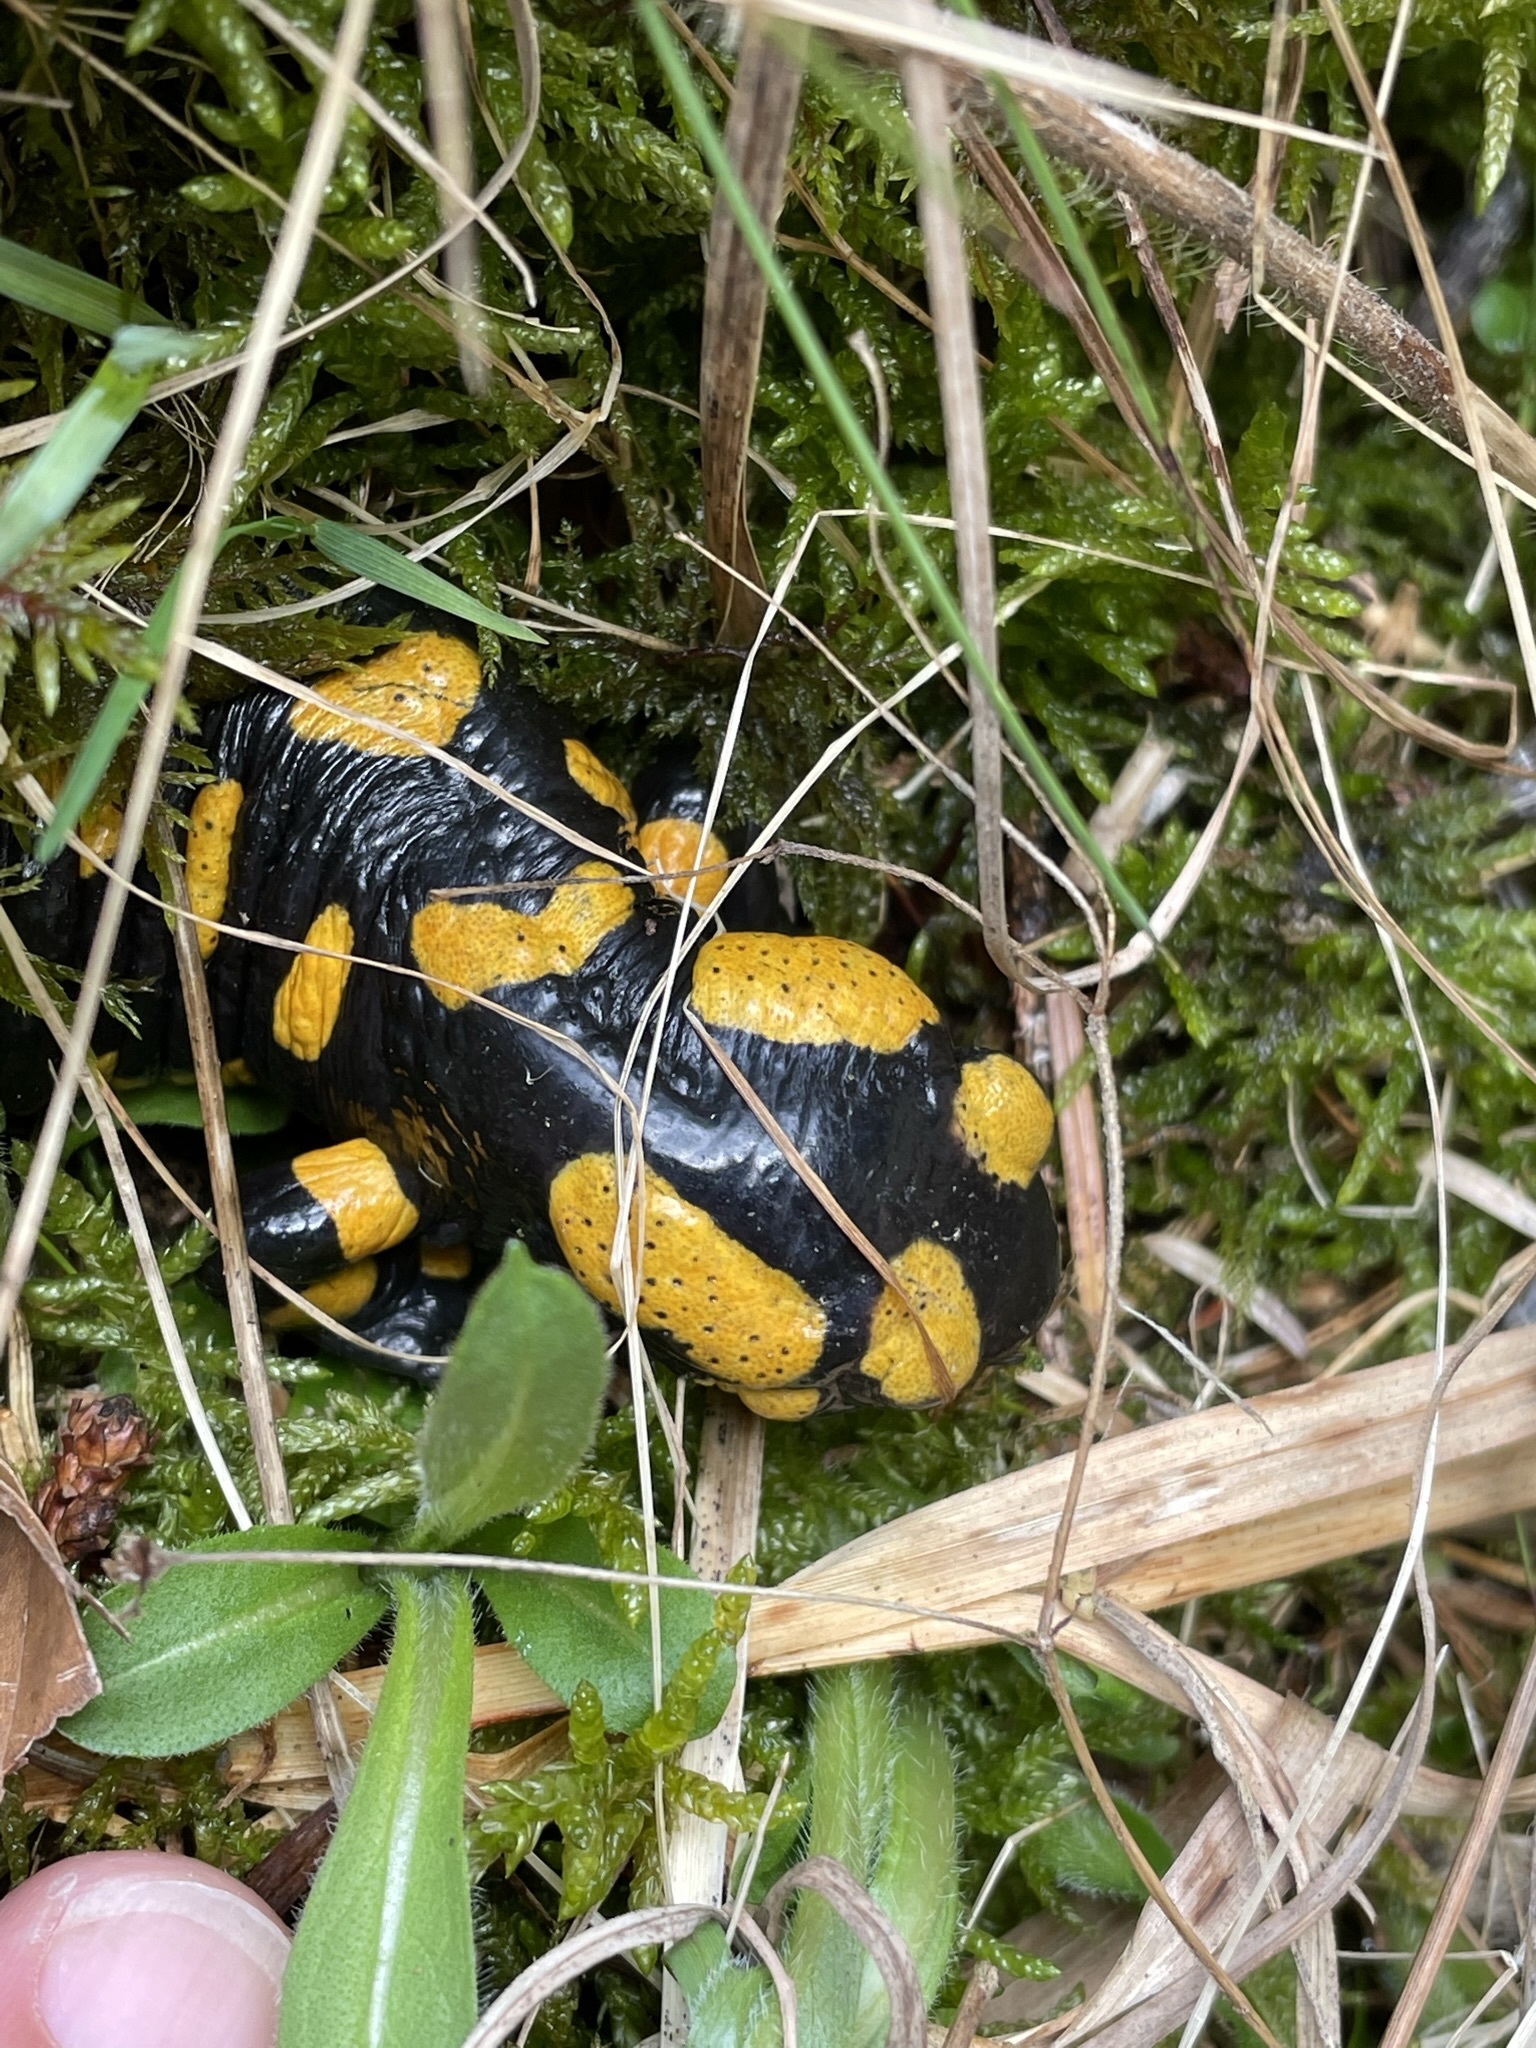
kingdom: Animalia
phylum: Chordata
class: Amphibia
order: Caudata
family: Salamandridae
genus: Salamandra
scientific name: Salamandra salamandra
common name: Fire salamander
